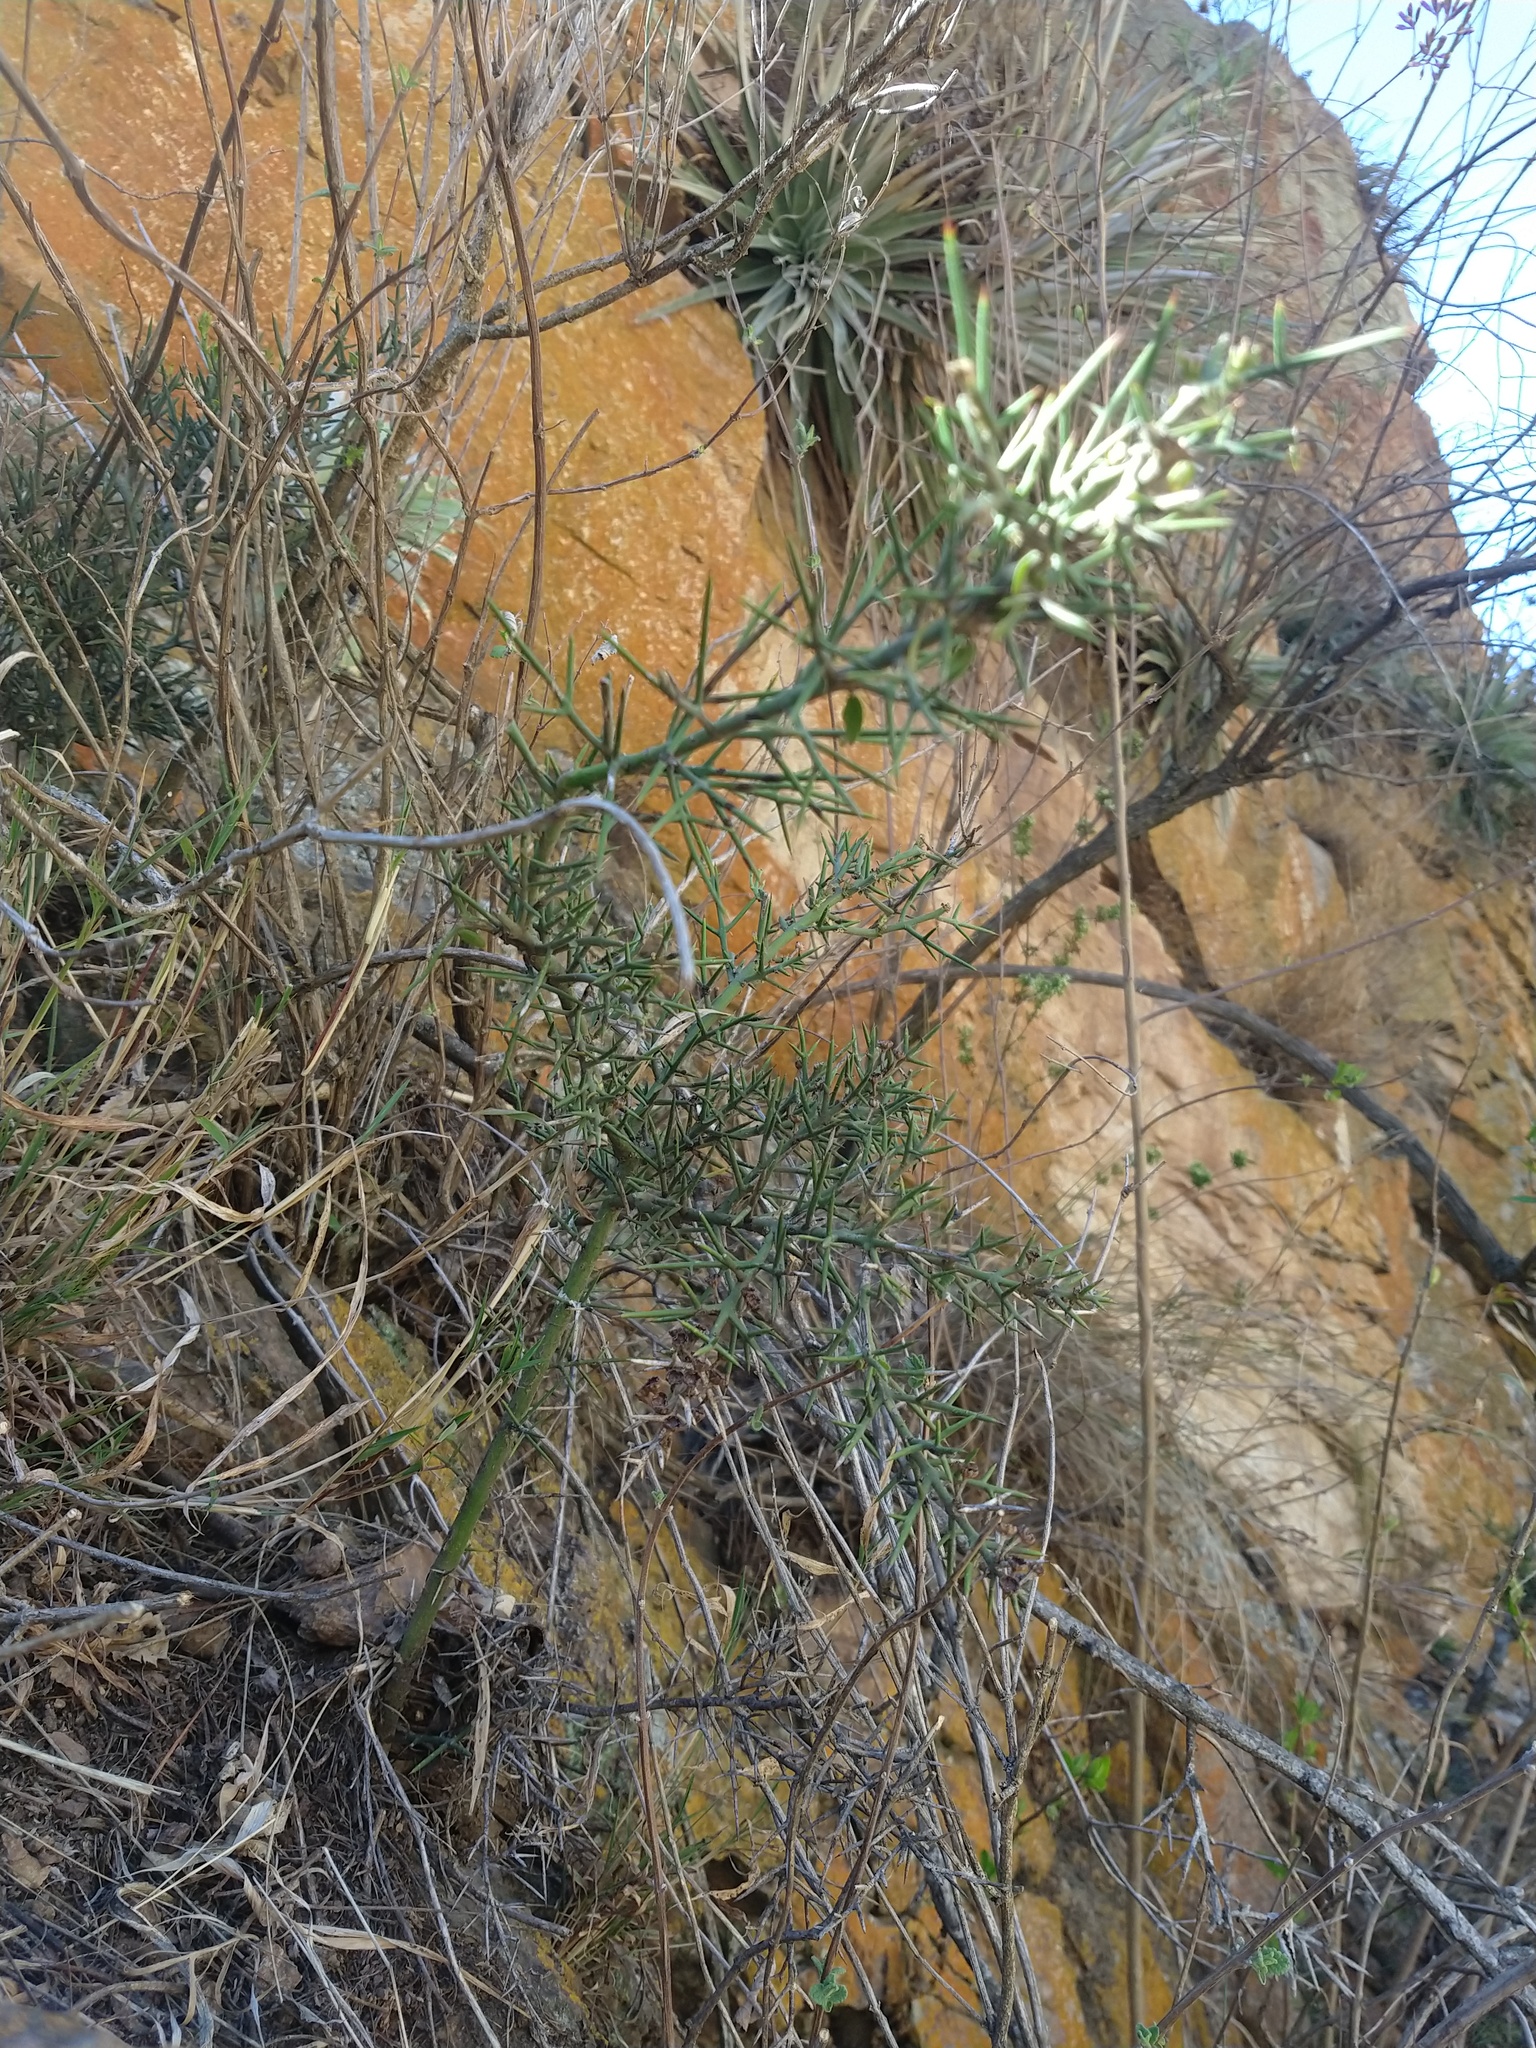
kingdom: Plantae
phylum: Tracheophyta
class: Magnoliopsida
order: Rosales
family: Rhamnaceae
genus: Colletia
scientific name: Colletia spinosissima
